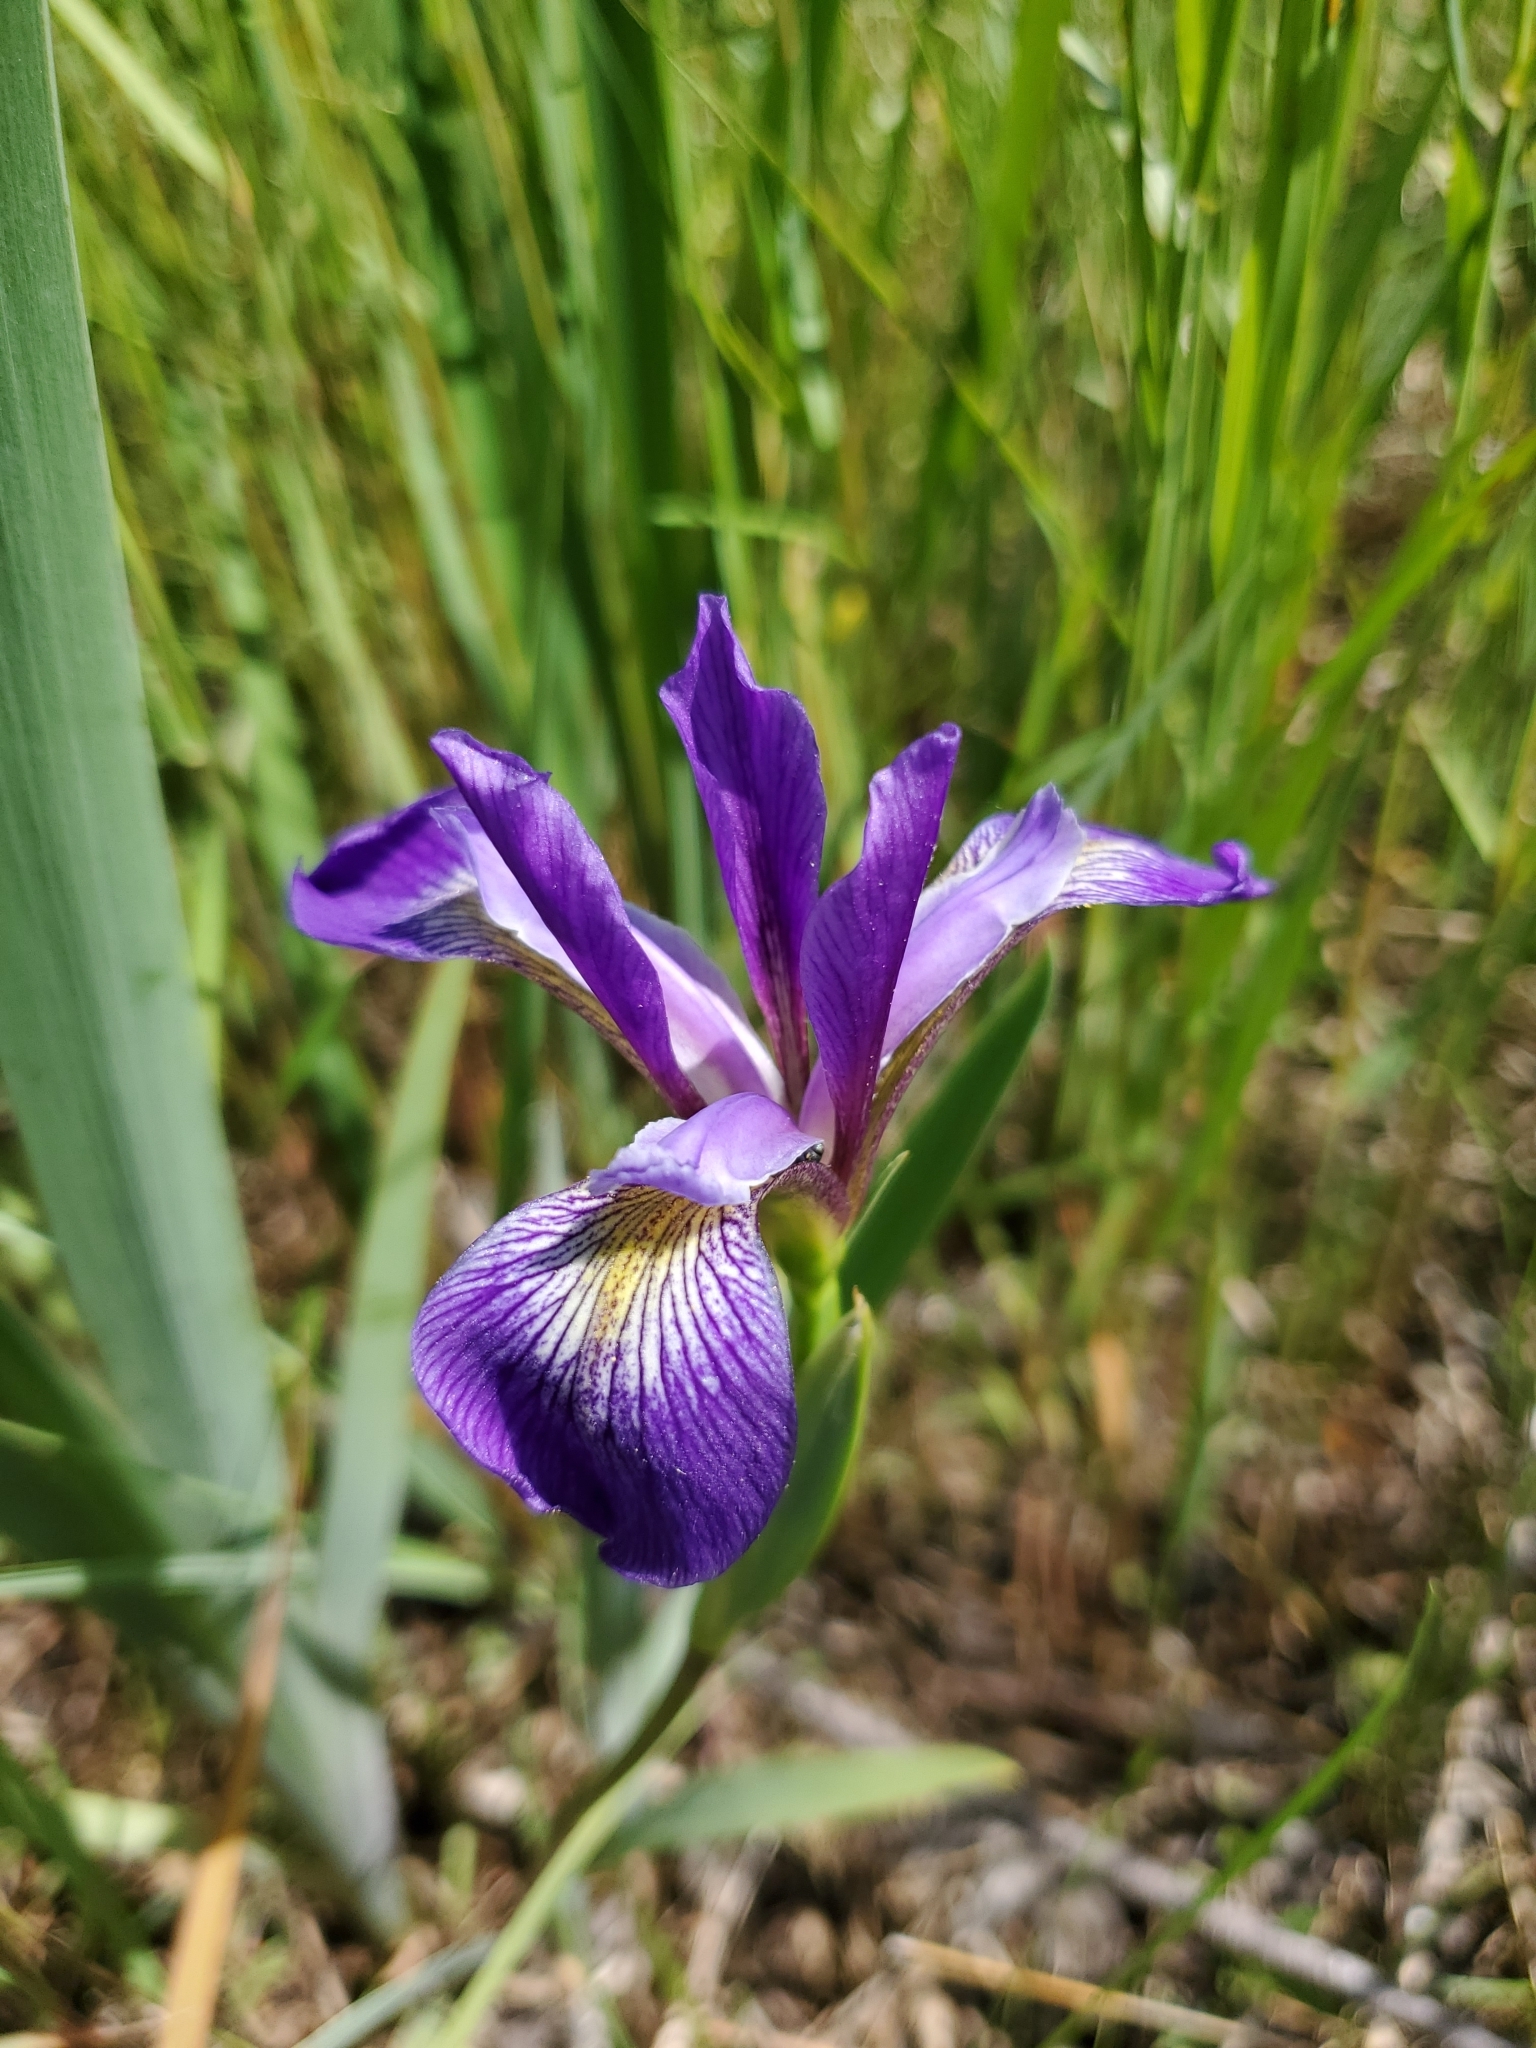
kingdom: Plantae
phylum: Tracheophyta
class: Liliopsida
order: Asparagales
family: Iridaceae
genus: Iris
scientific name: Iris versicolor
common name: Purple iris
